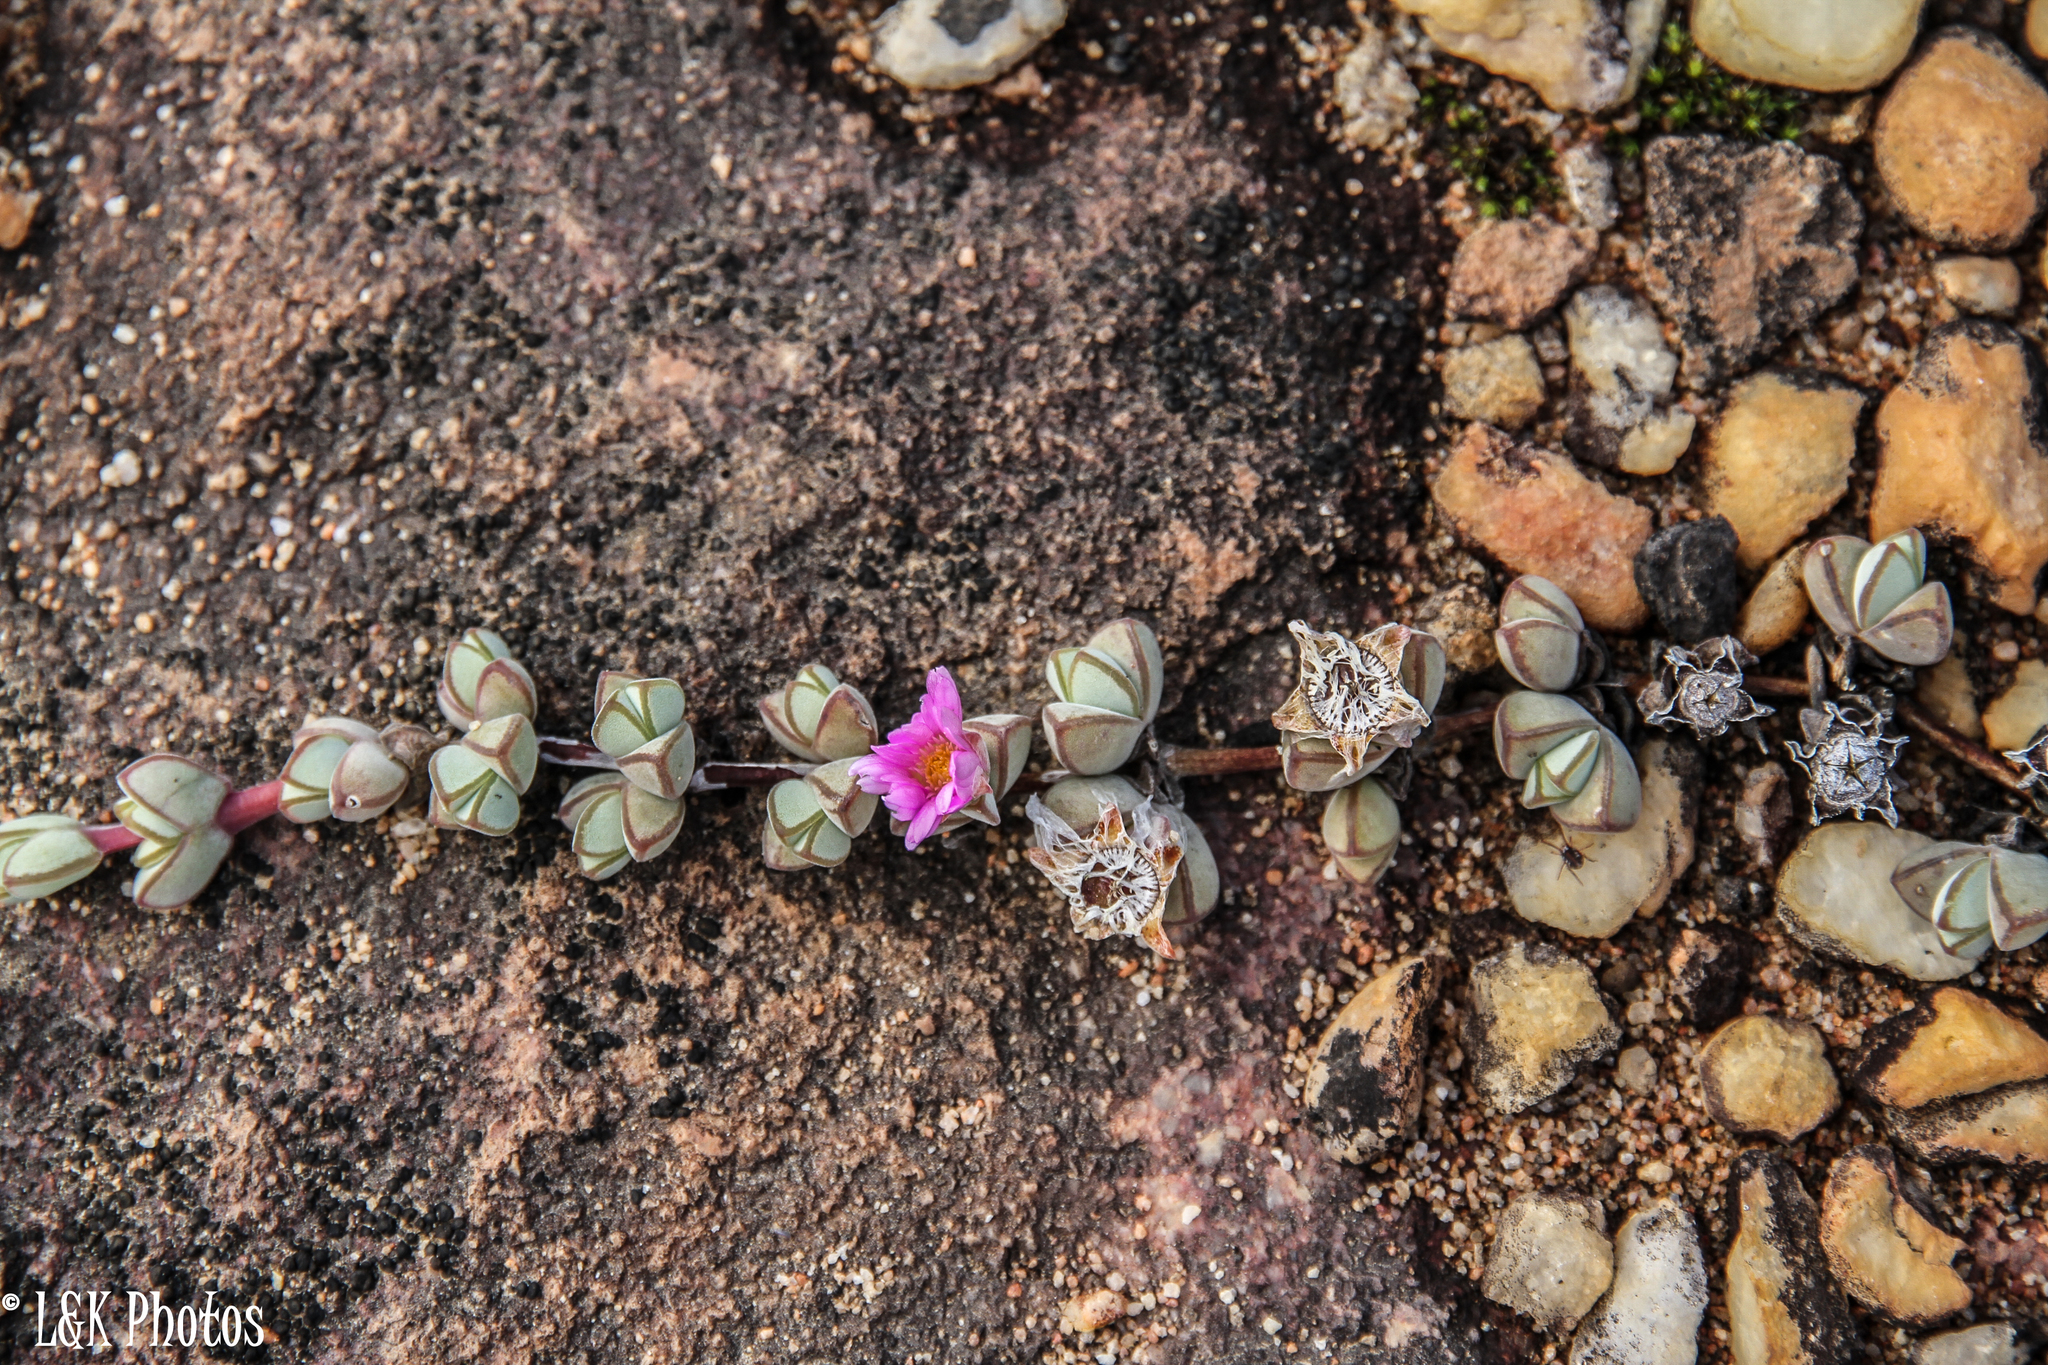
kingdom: Plantae
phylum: Tracheophyta
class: Magnoliopsida
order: Caryophyllales
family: Aizoaceae
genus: Braunsia
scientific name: Braunsia maximiliani
